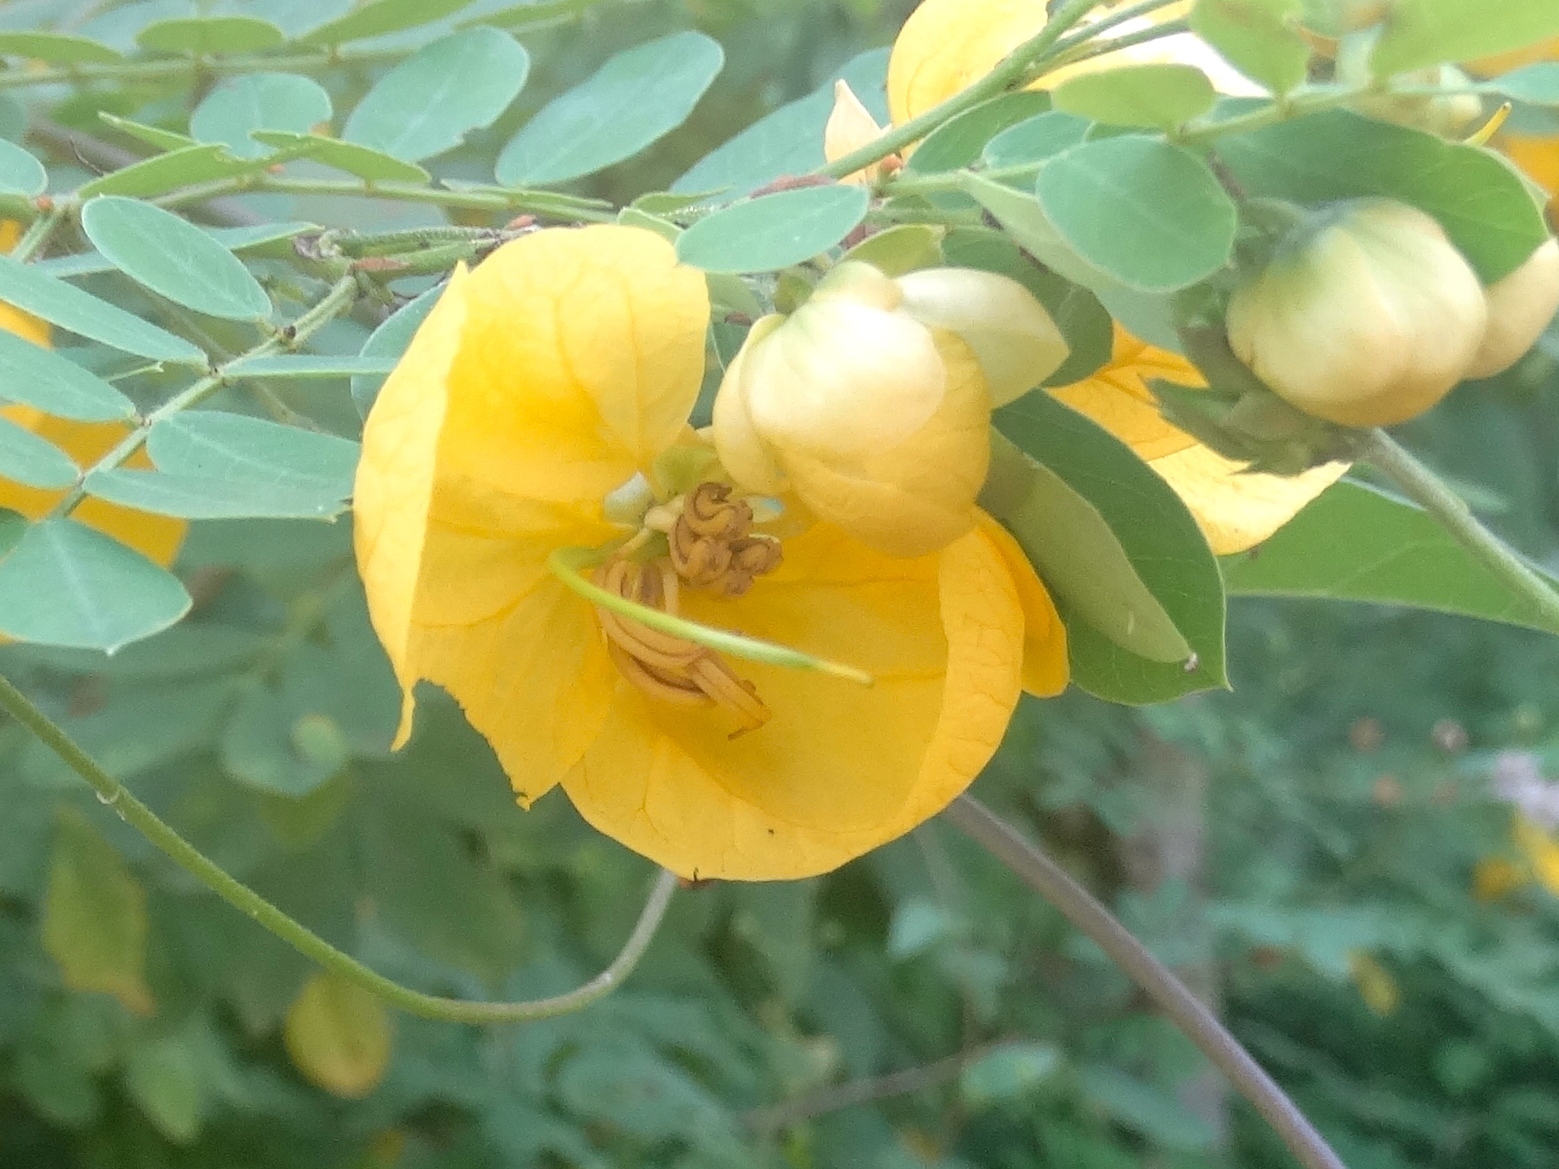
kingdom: Plantae
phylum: Tracheophyta
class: Magnoliopsida
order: Fabales
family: Fabaceae
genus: Senna
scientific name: Senna pallida
